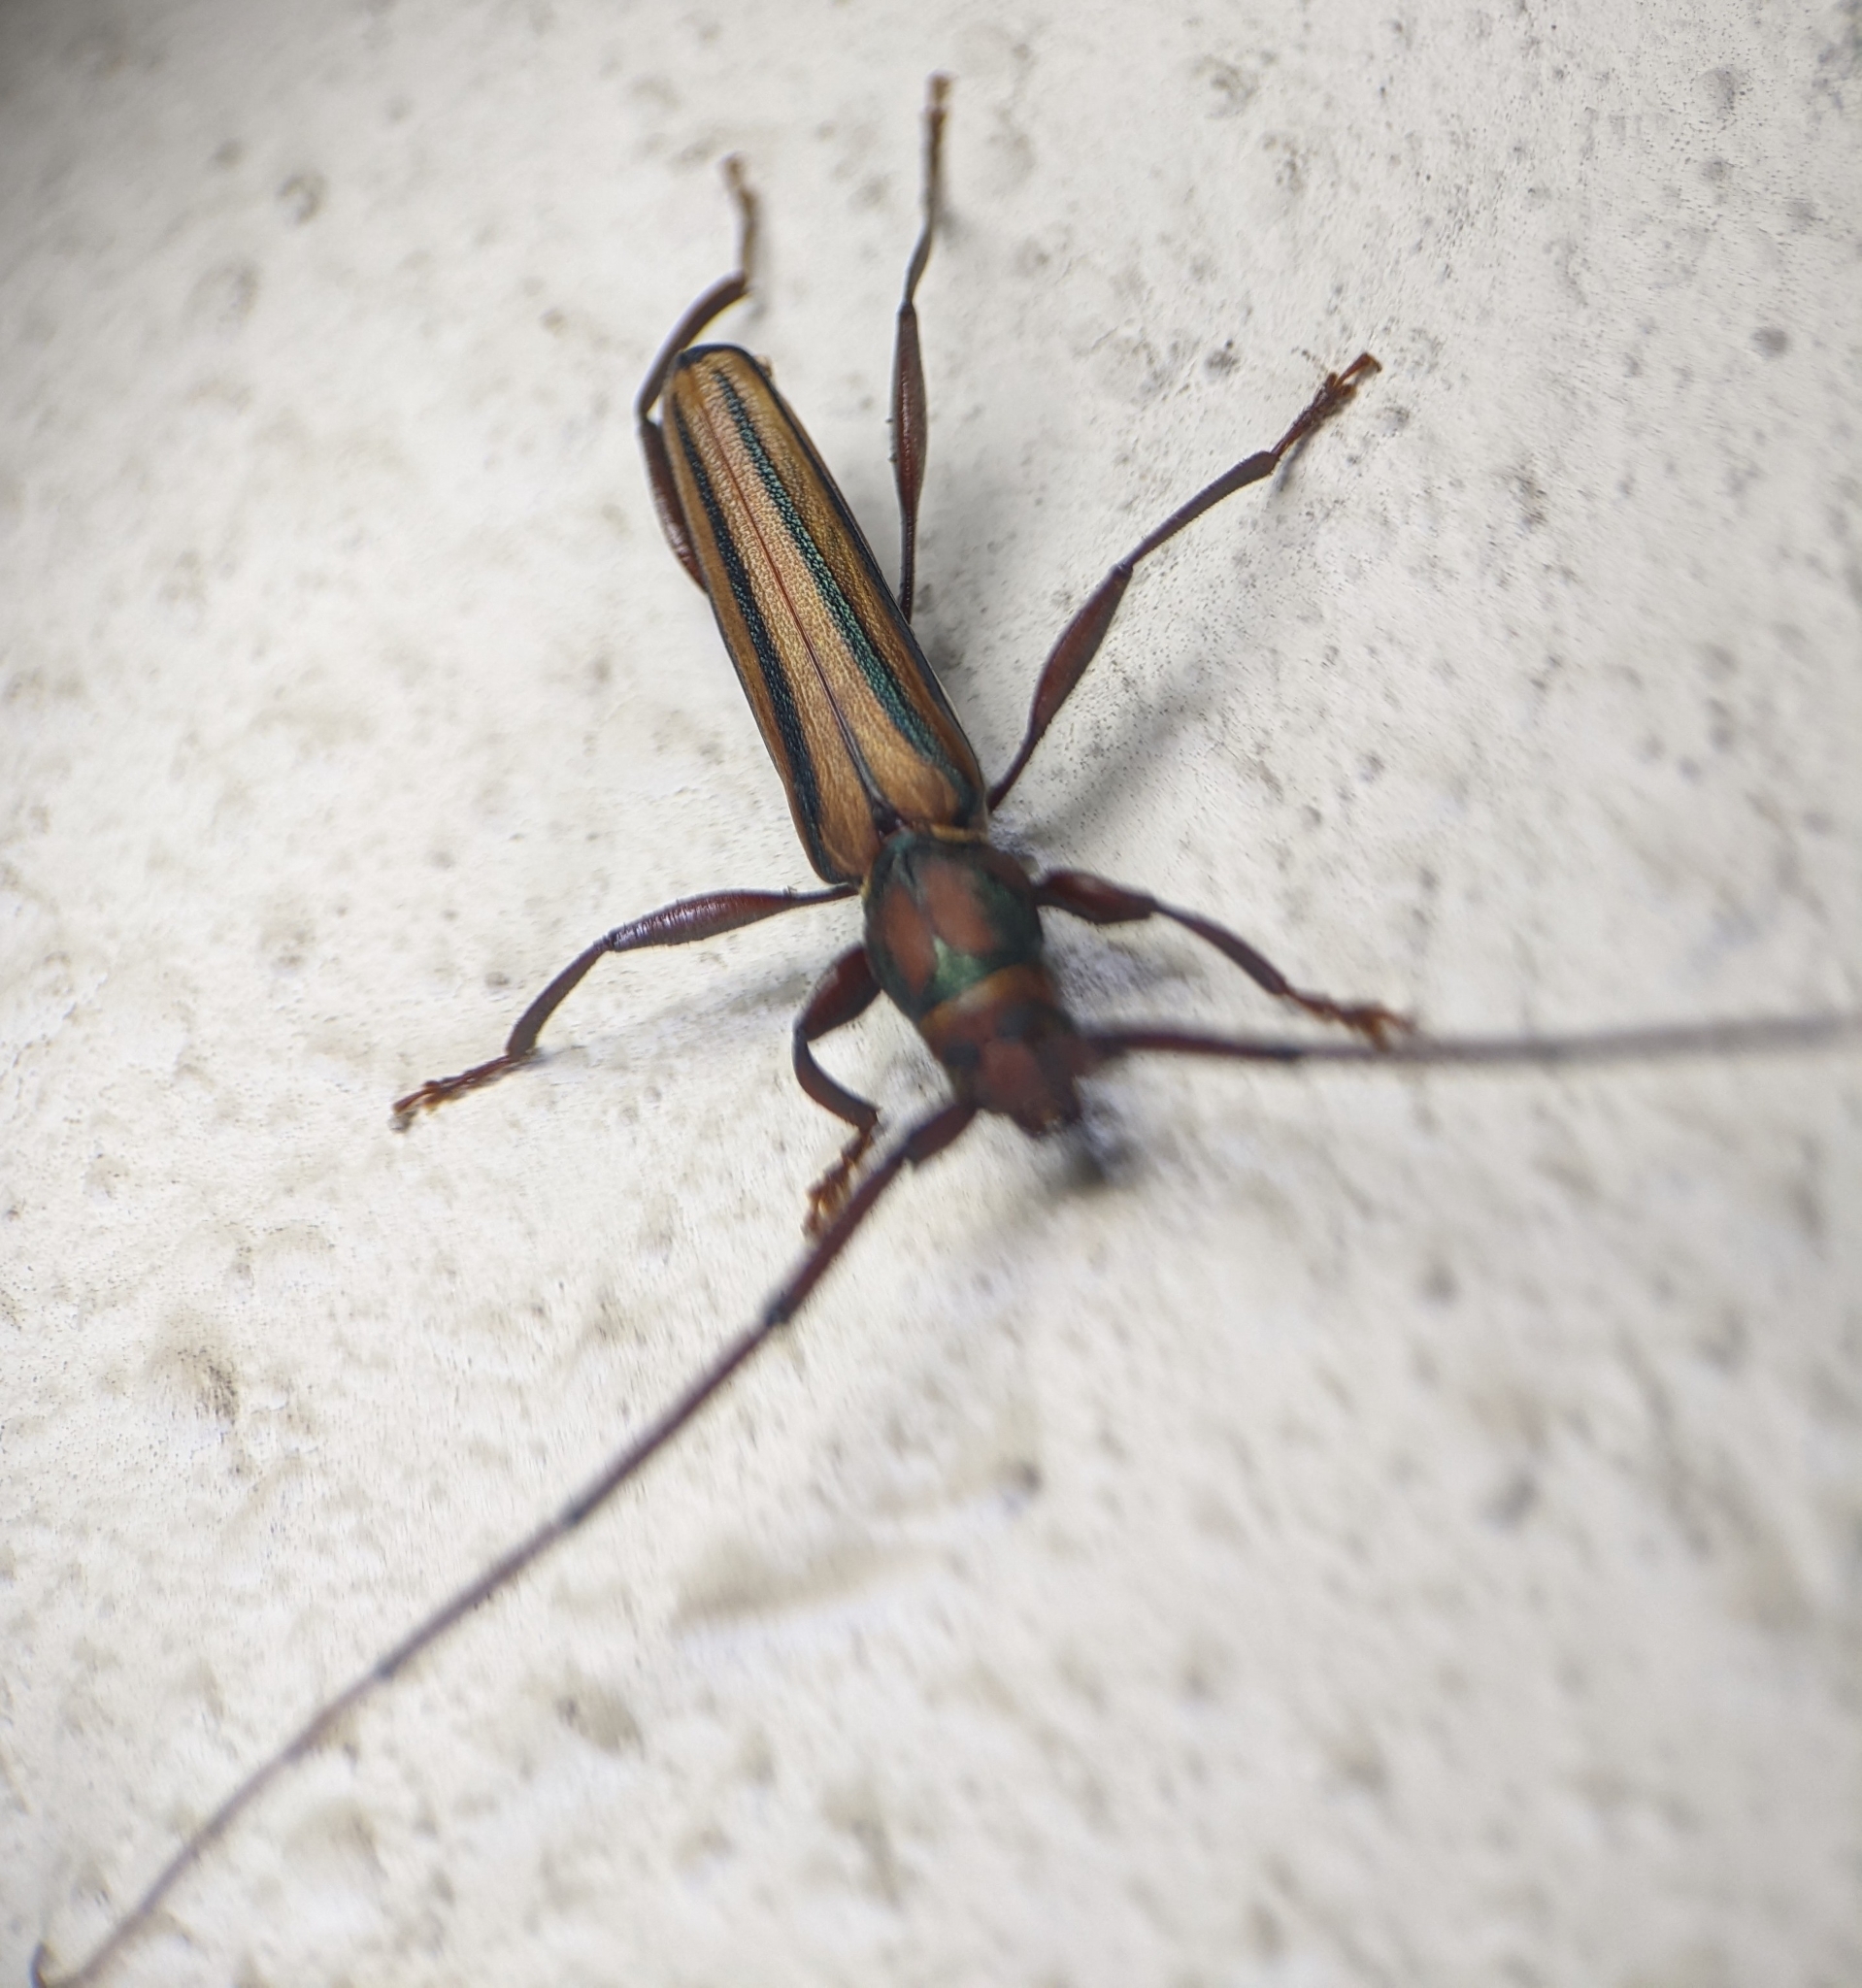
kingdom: Animalia
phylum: Arthropoda
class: Insecta
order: Coleoptera
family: Cerambycidae
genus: Xystrocera
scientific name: Xystrocera globosa
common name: Peach-tree longhorn
